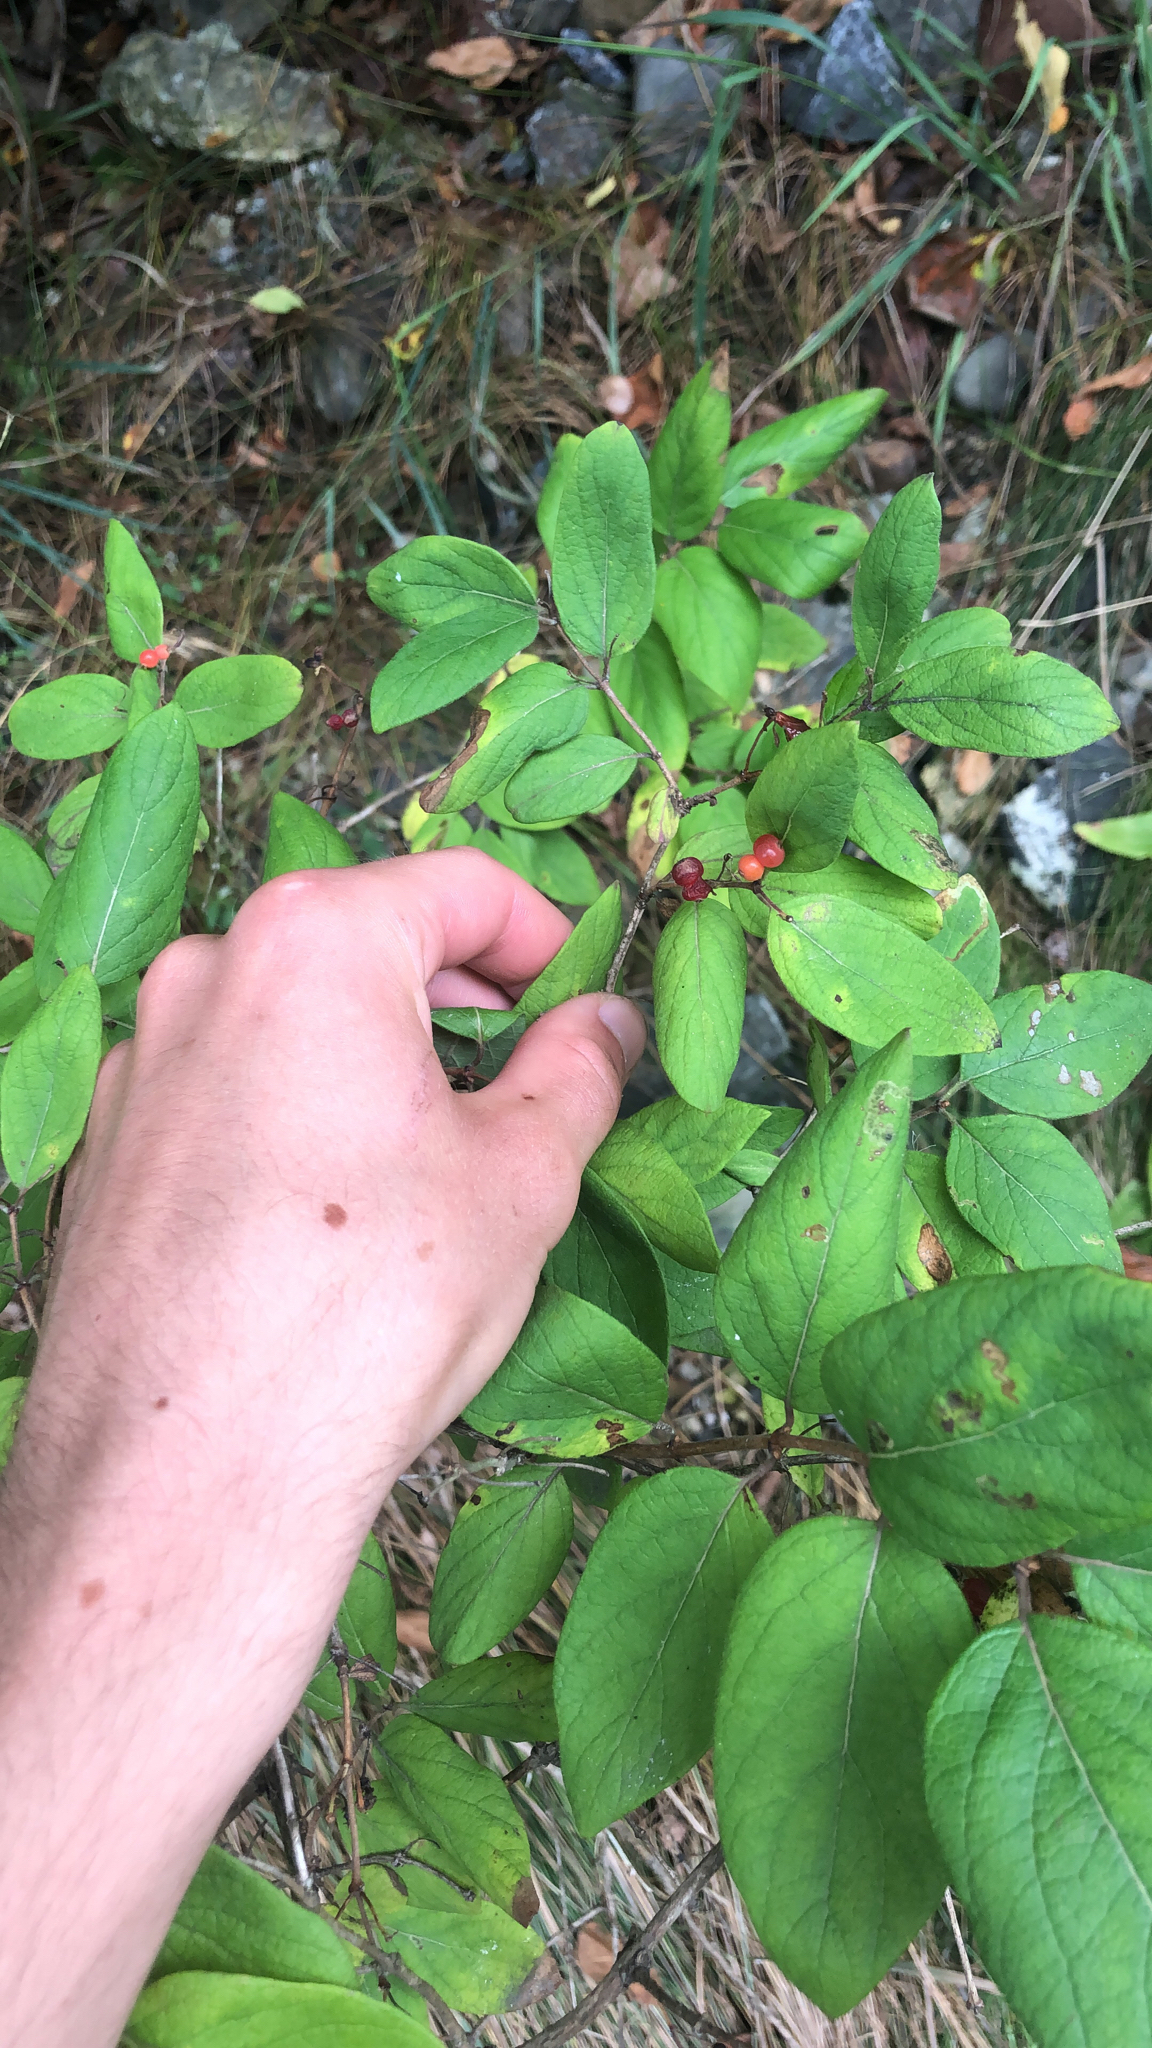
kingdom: Plantae
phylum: Tracheophyta
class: Magnoliopsida
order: Dipsacales
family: Caprifoliaceae
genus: Lonicera
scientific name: Lonicera
